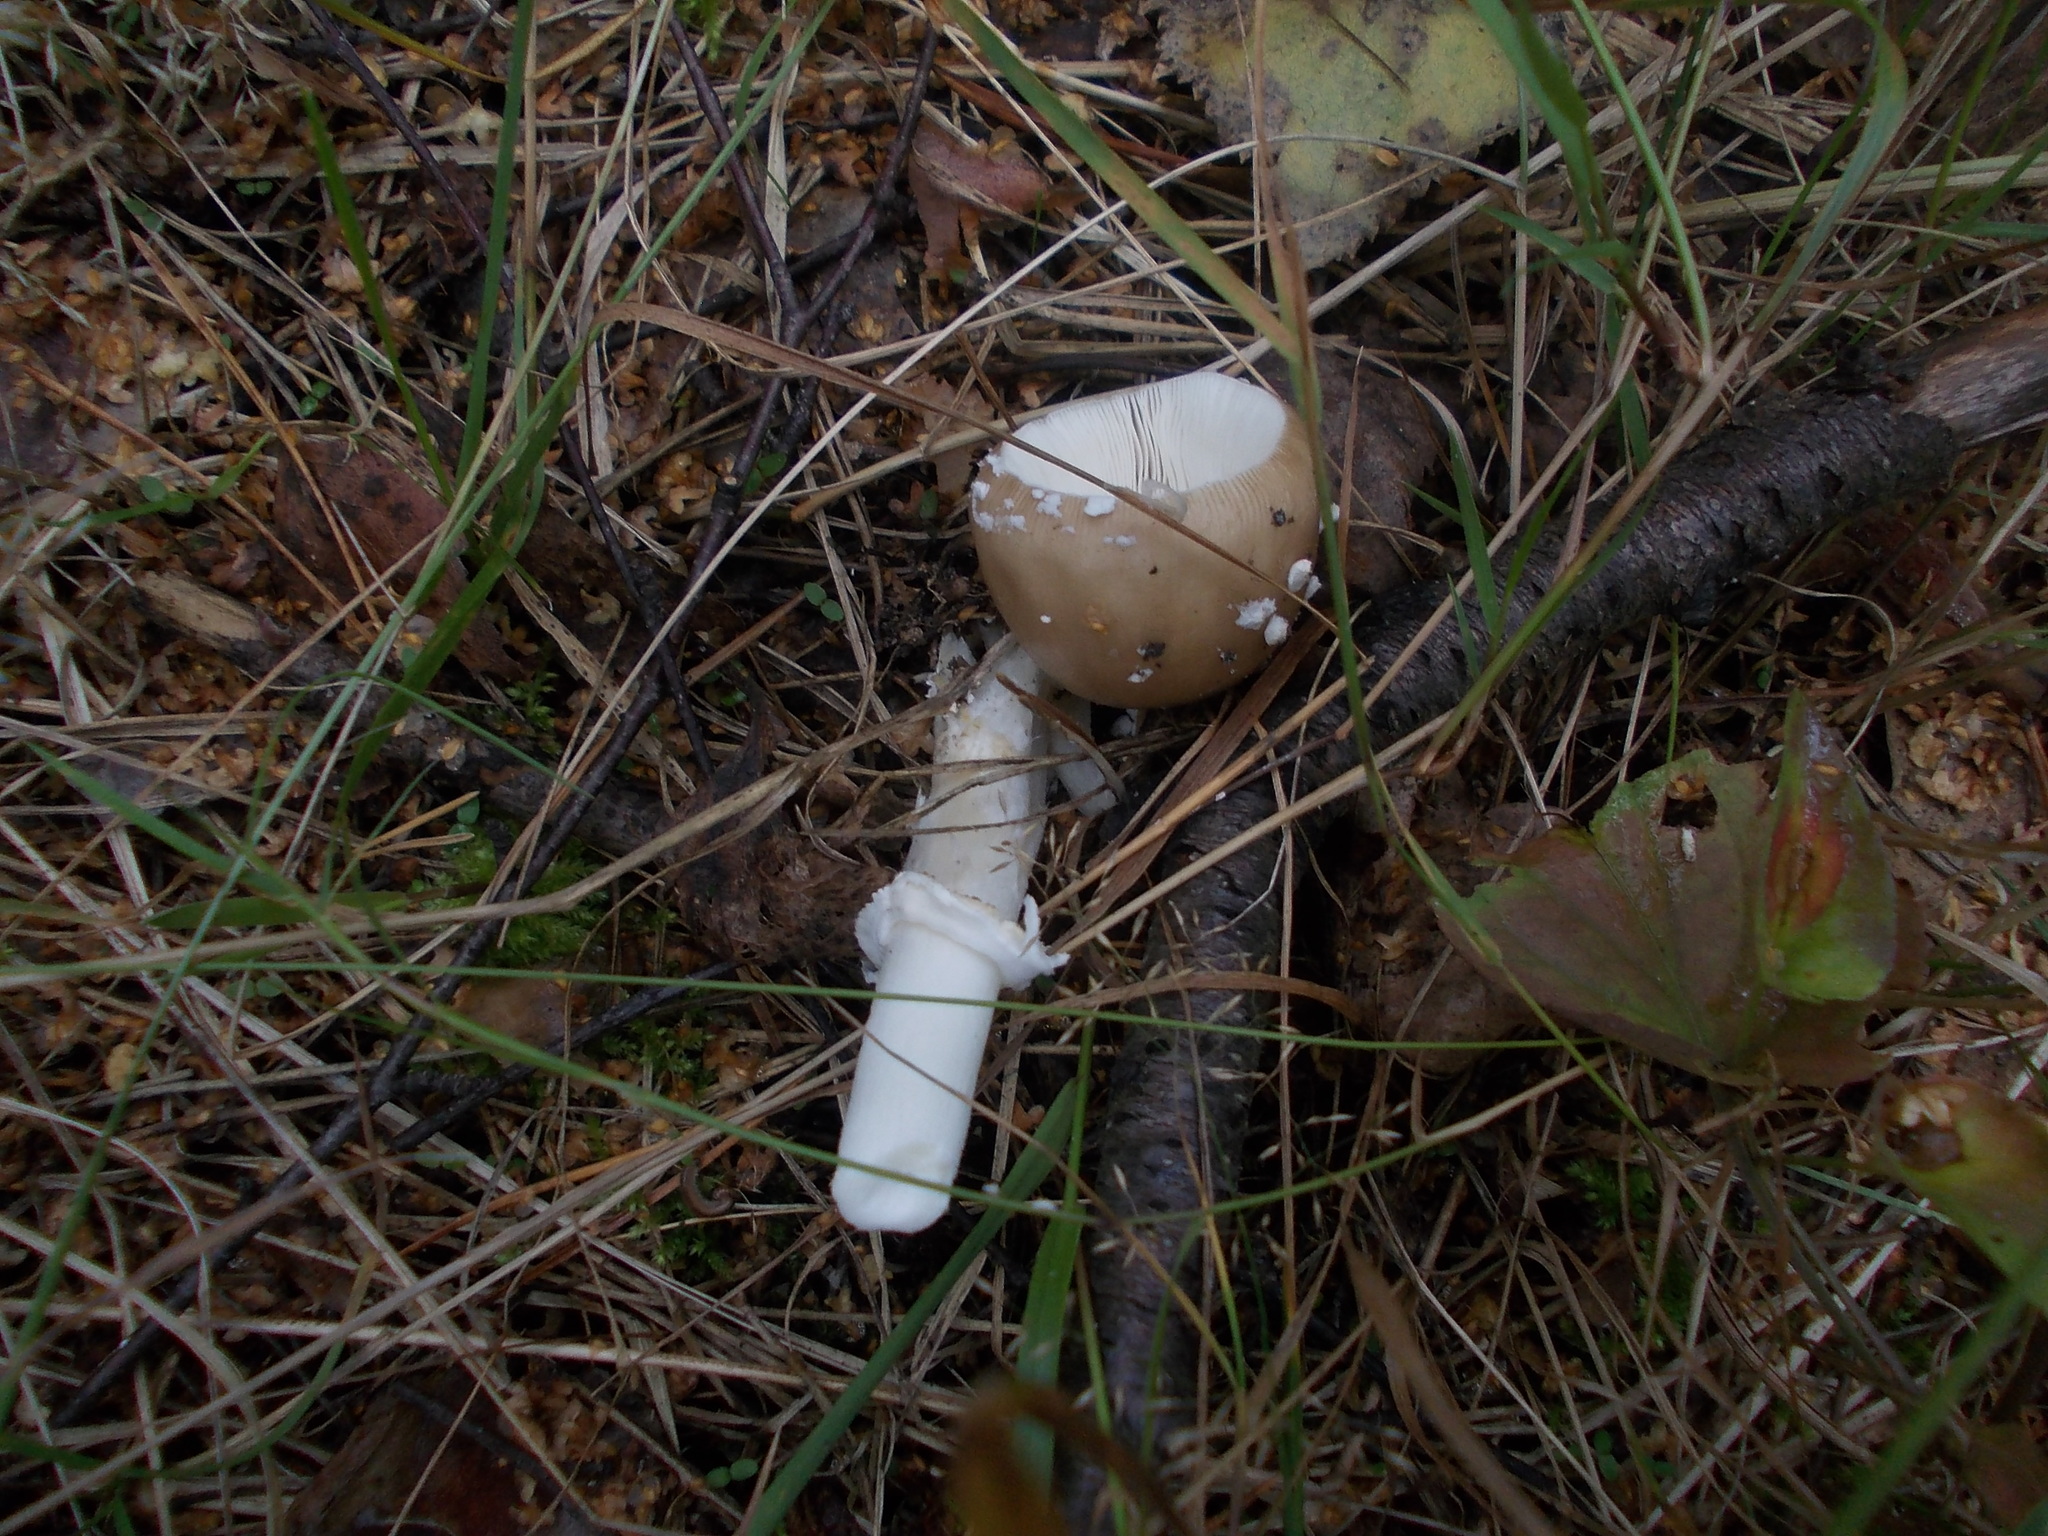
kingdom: Fungi
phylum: Basidiomycota
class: Agaricomycetes
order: Agaricales
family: Amanitaceae
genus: Amanita
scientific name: Amanita pantherina
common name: Panthercap
